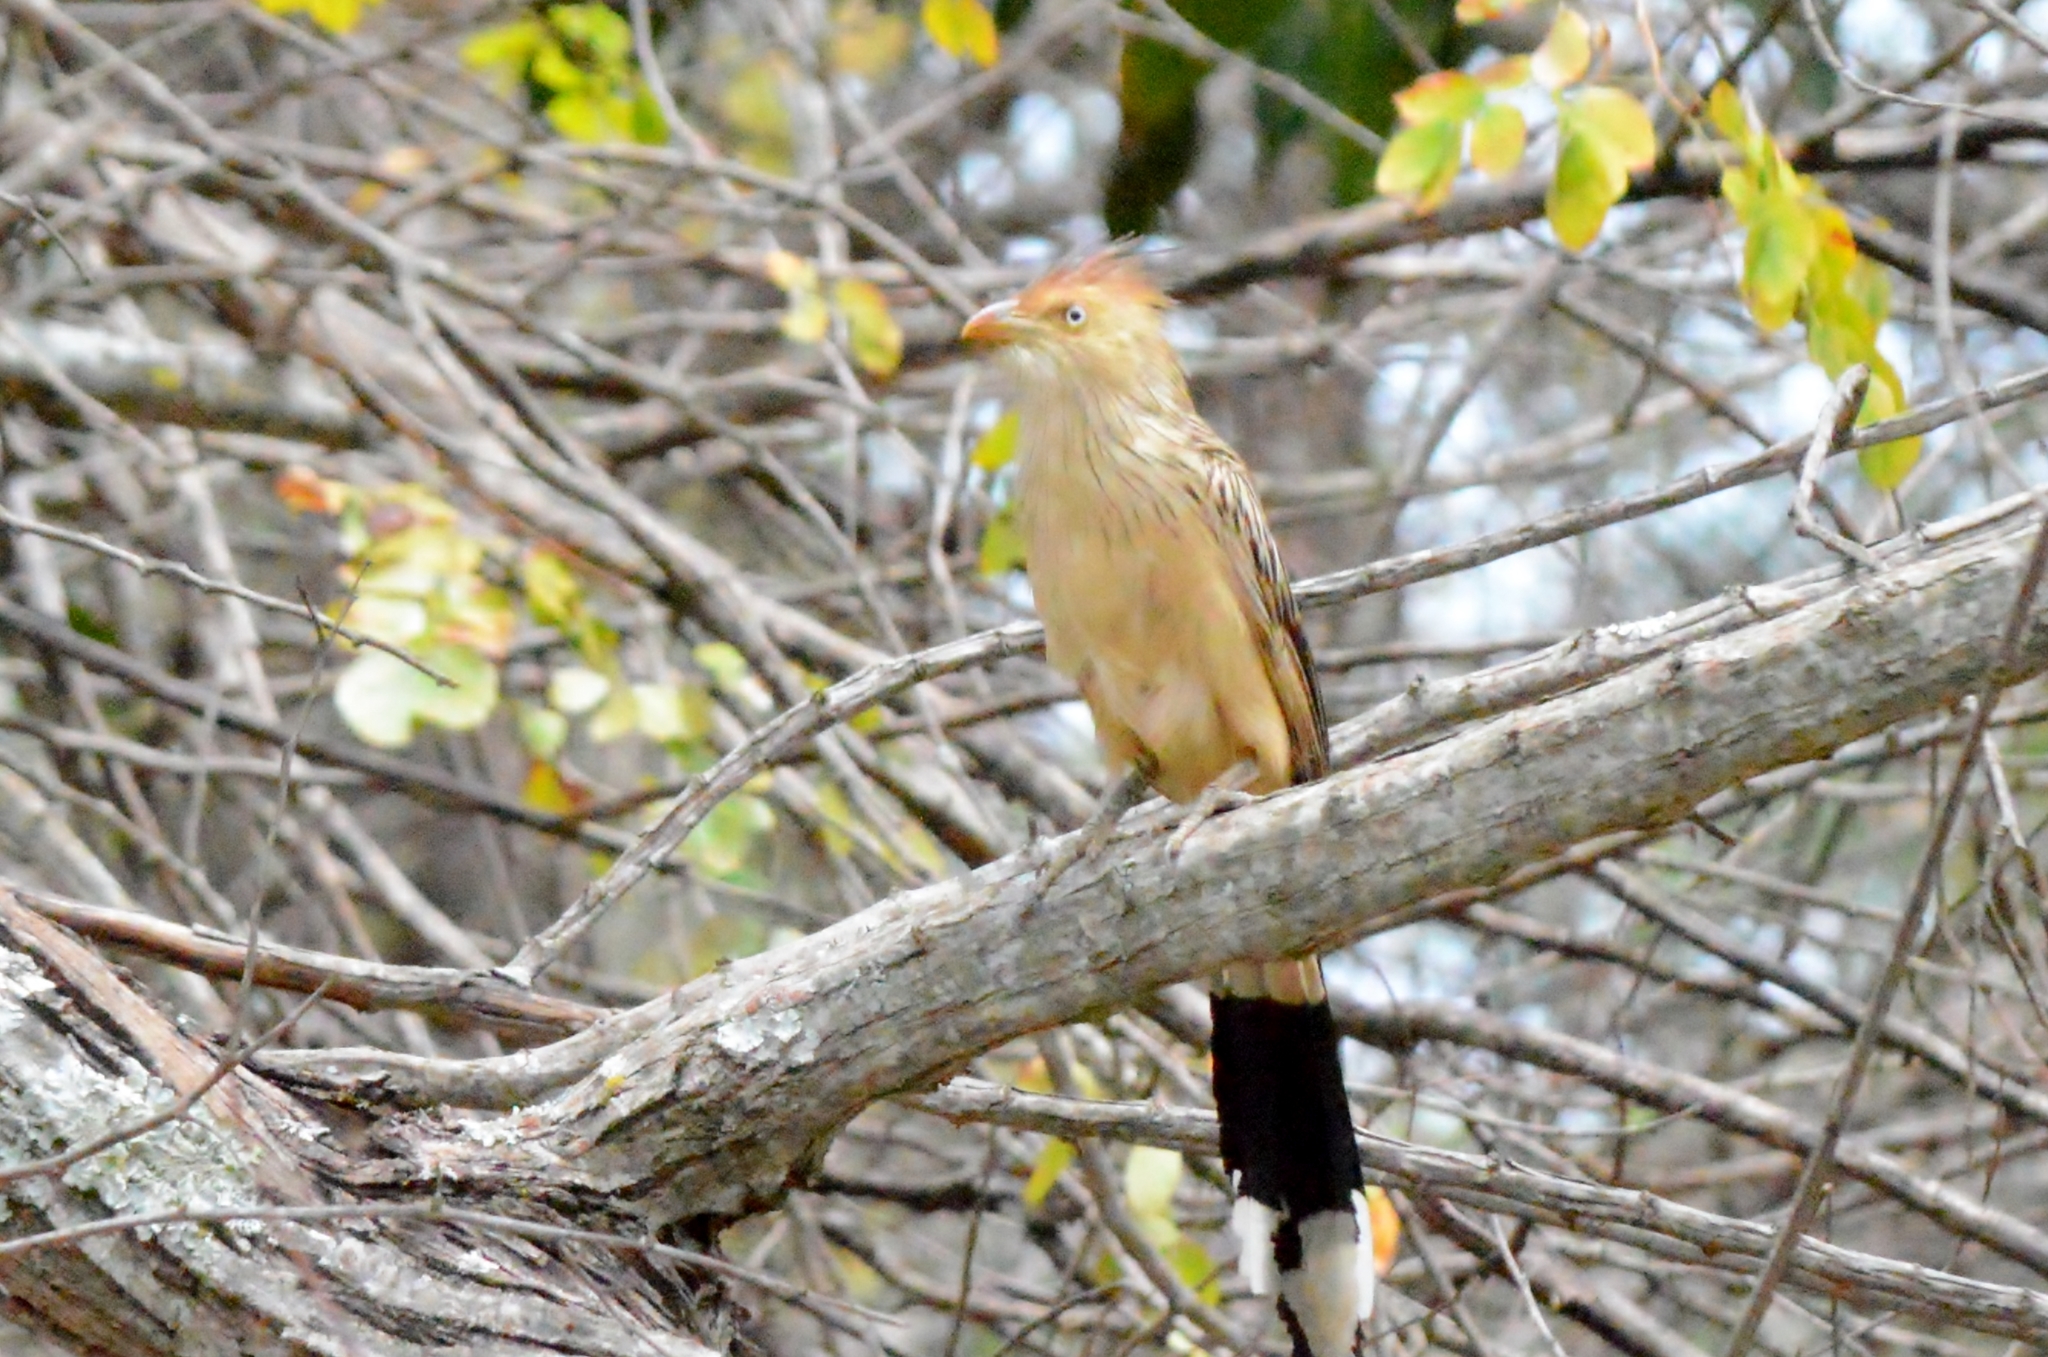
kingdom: Animalia
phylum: Chordata
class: Aves
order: Cuculiformes
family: Cuculidae
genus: Guira
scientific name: Guira guira
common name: Guira cuckoo
